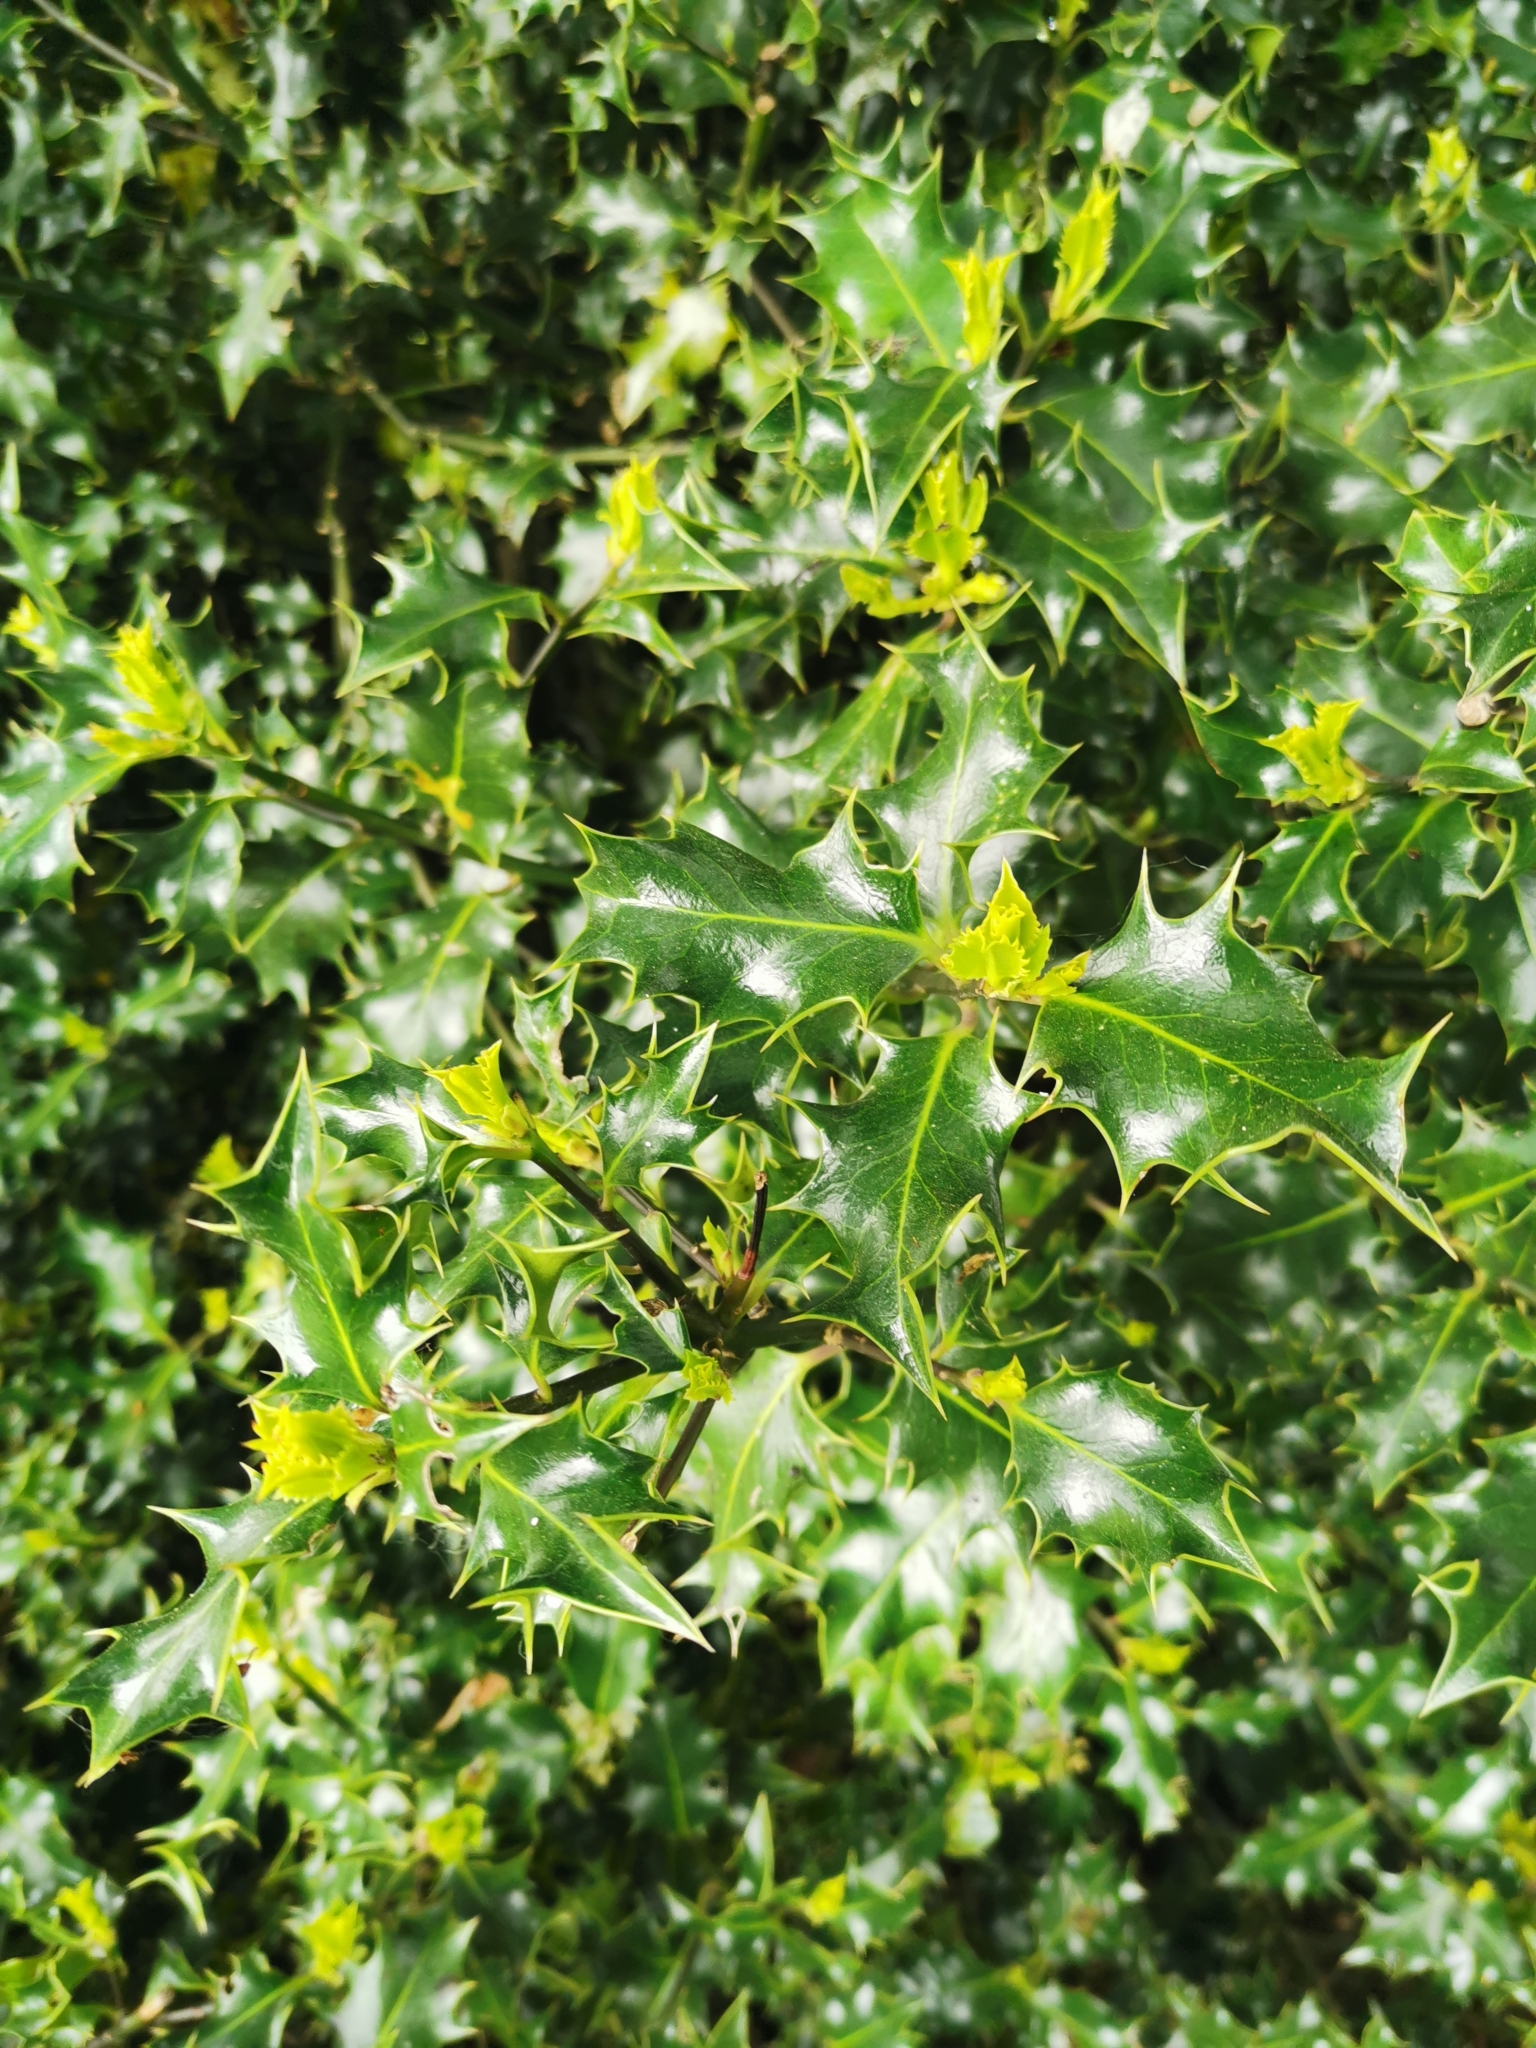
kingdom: Plantae
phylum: Tracheophyta
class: Magnoliopsida
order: Aquifoliales
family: Aquifoliaceae
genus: Ilex
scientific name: Ilex aquifolium
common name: English holly
